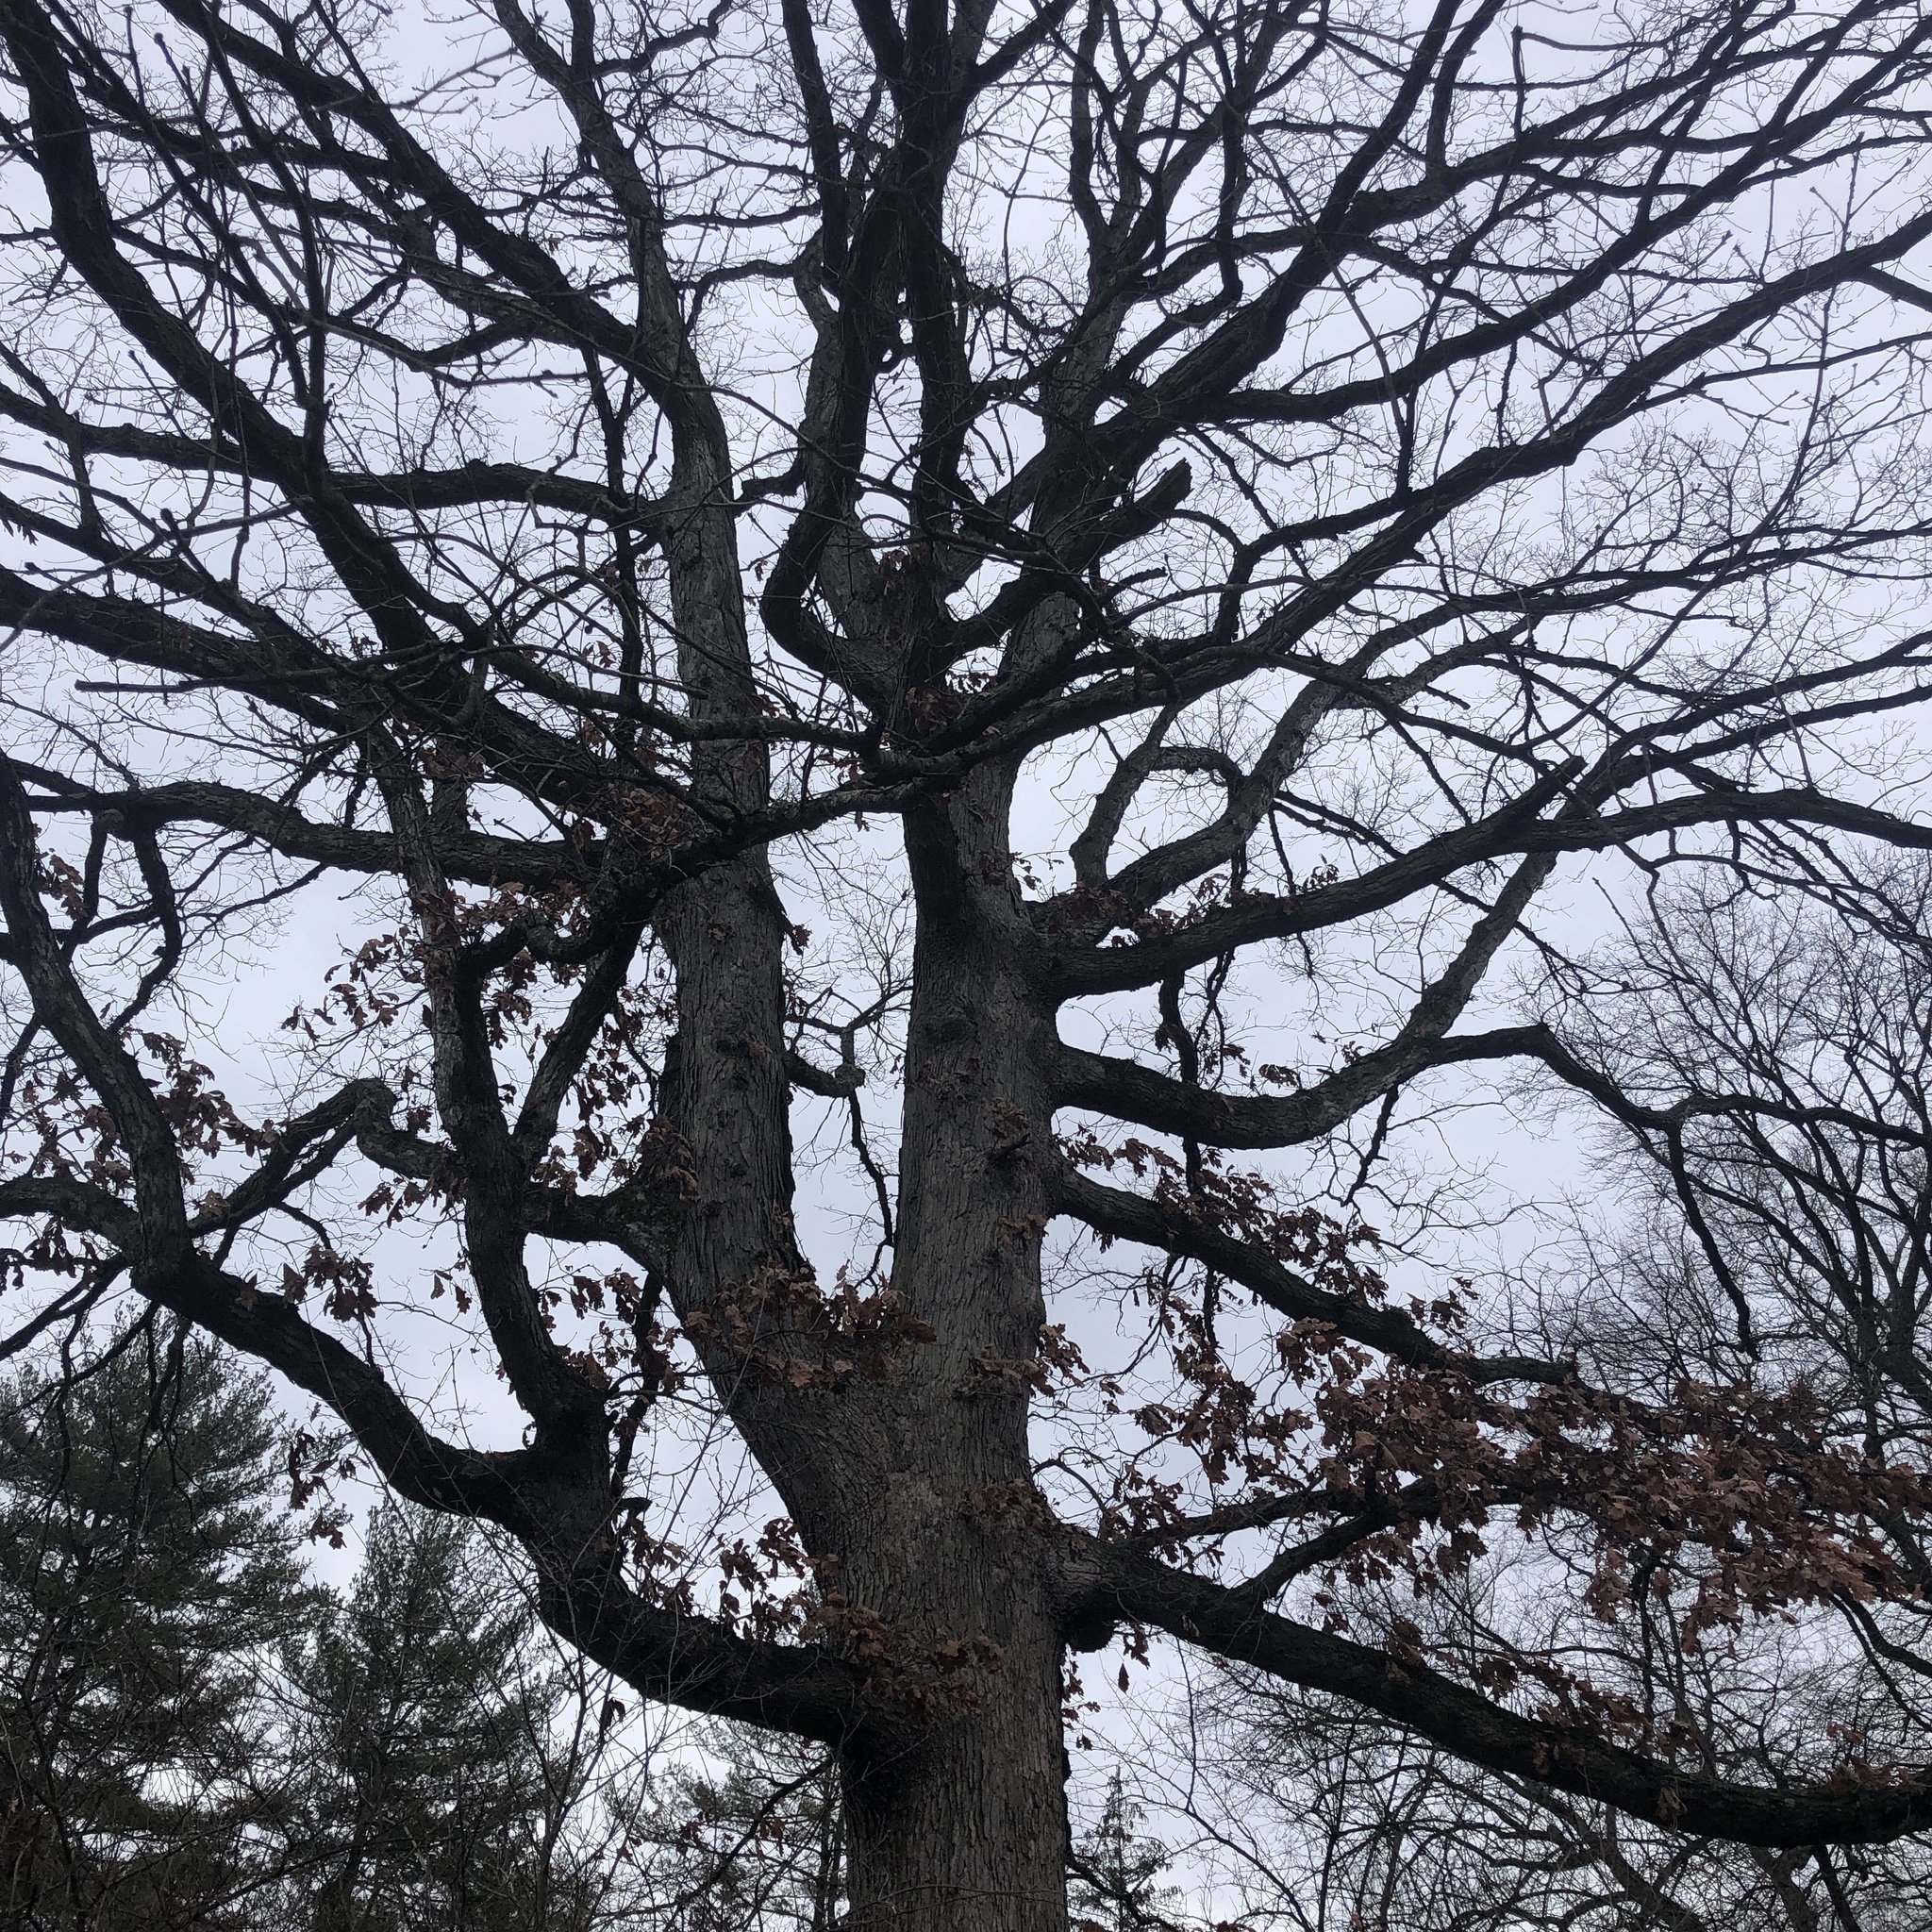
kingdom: Plantae
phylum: Tracheophyta
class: Magnoliopsida
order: Fagales
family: Fagaceae
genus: Quercus
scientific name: Quercus alba
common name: White oak
